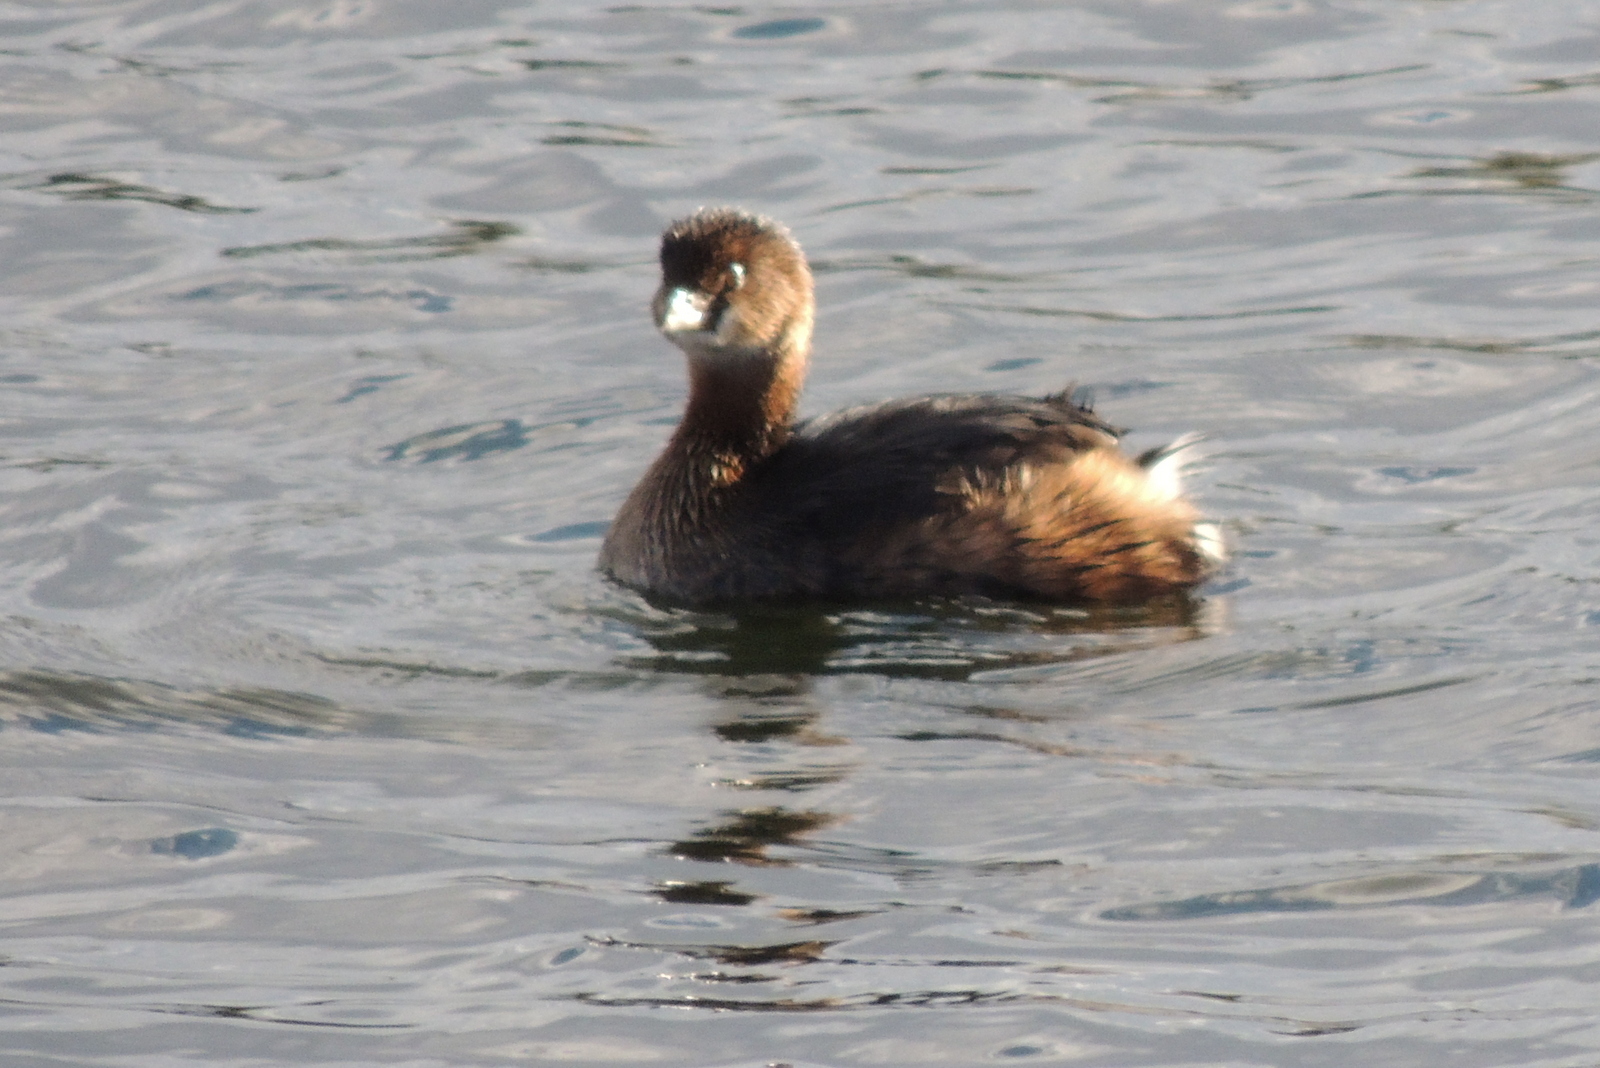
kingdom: Animalia
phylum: Chordata
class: Aves
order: Podicipediformes
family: Podicipedidae
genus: Podilymbus
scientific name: Podilymbus podiceps
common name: Pied-billed grebe
